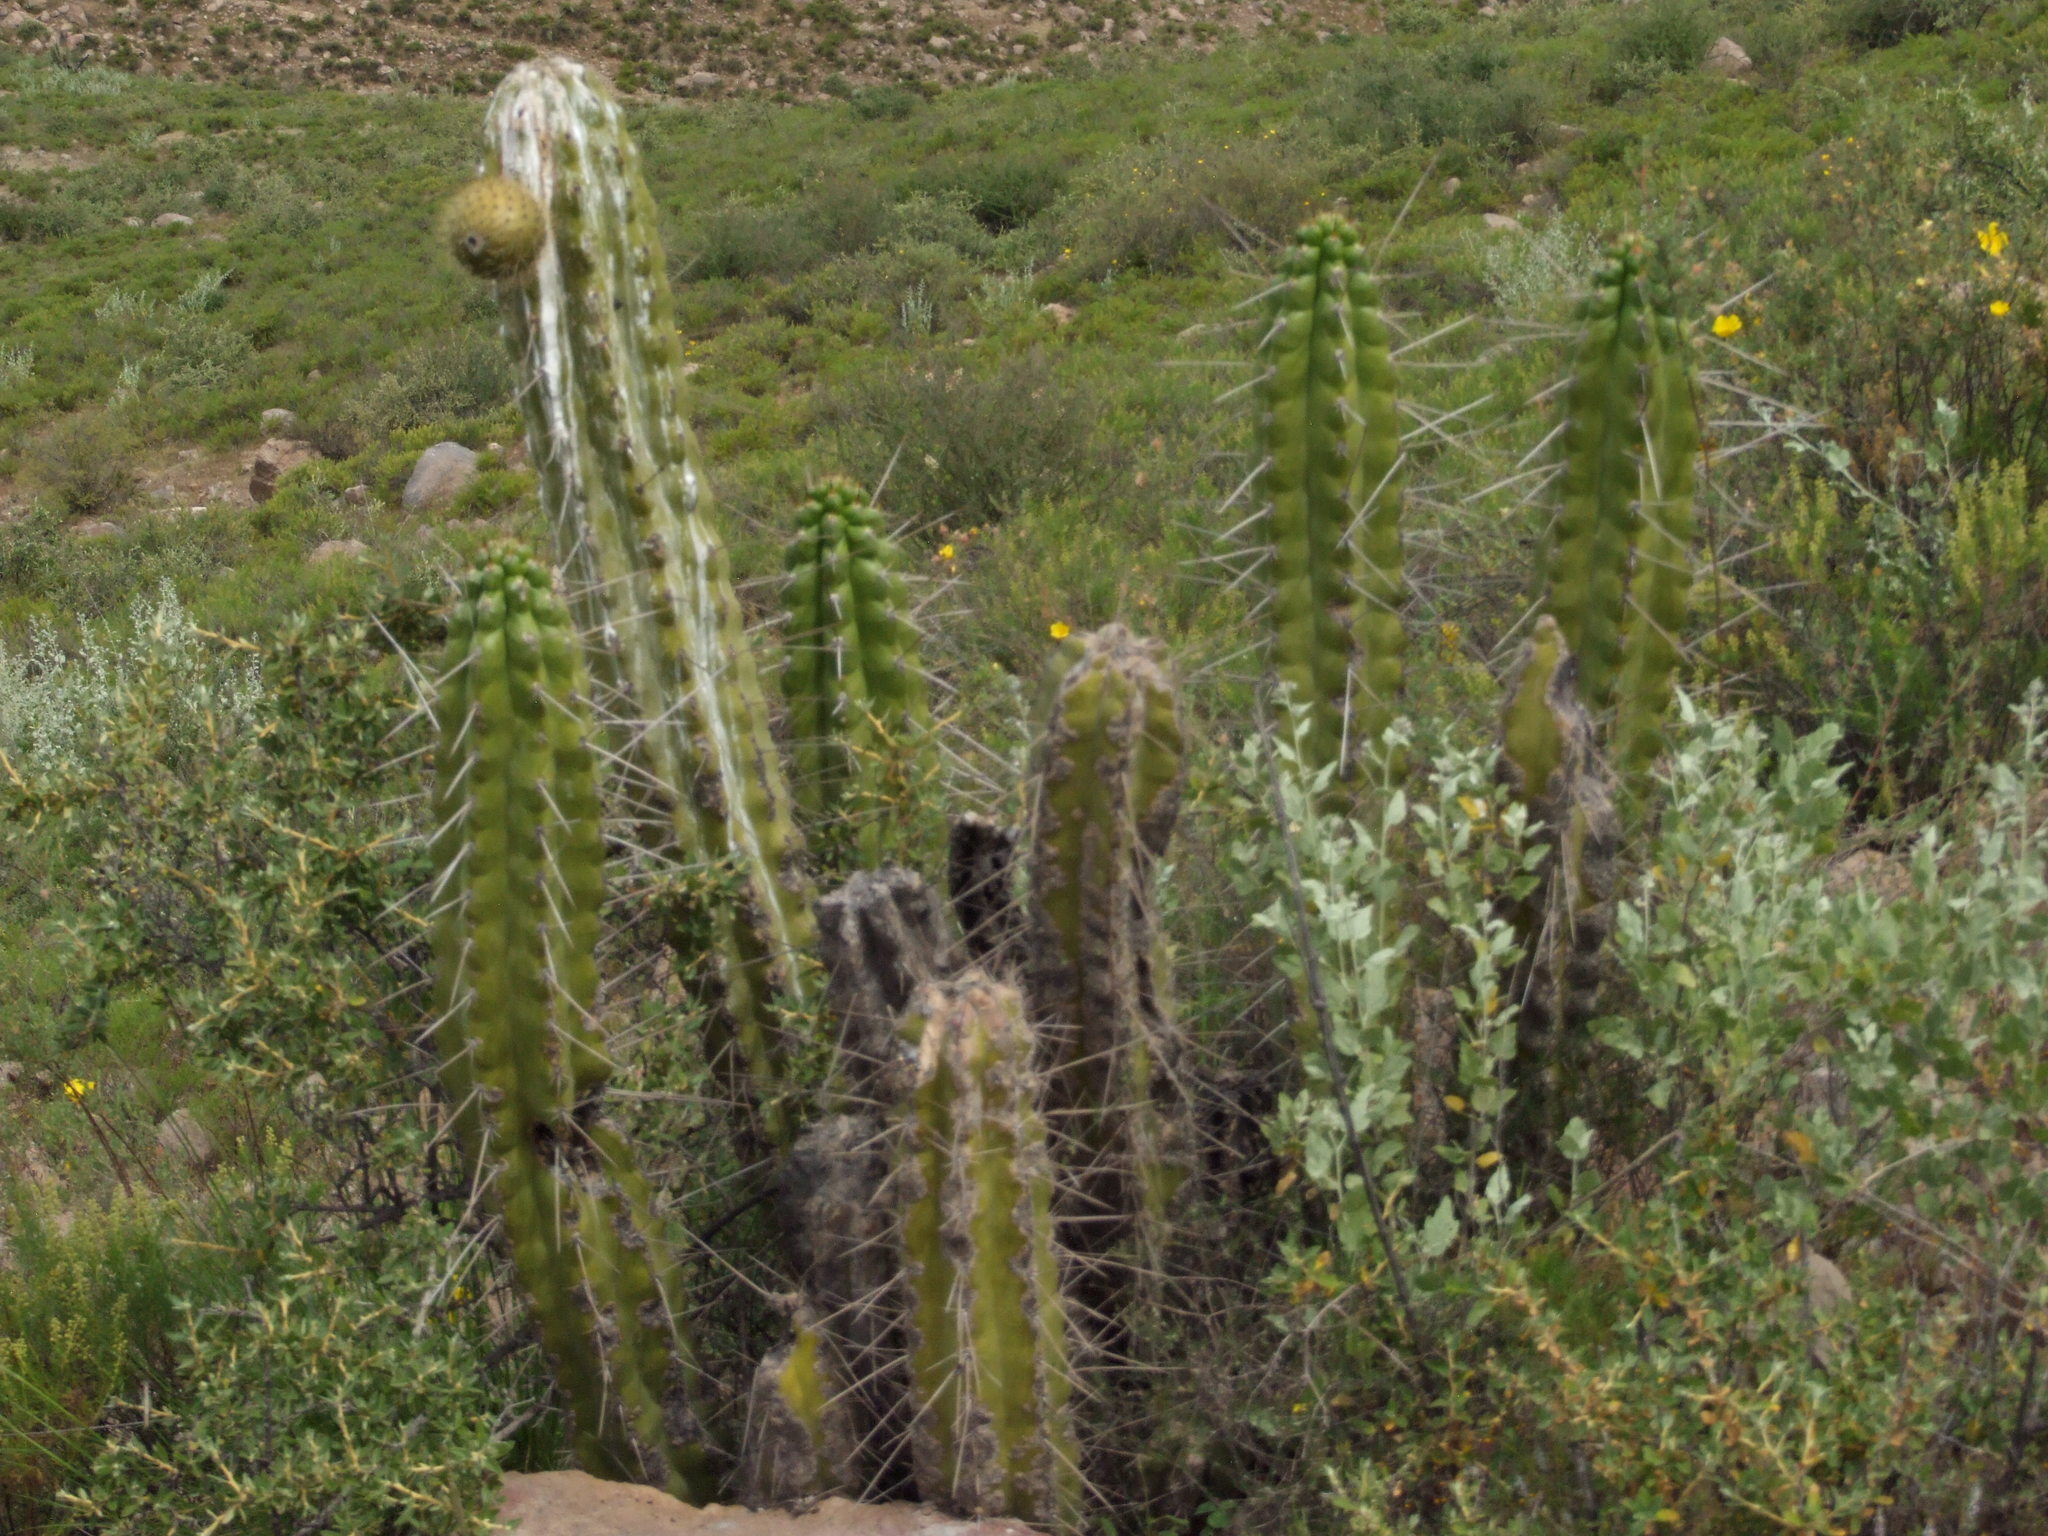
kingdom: Plantae
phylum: Tracheophyta
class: Magnoliopsida
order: Caryophyllales
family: Cactaceae
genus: Corryocactus
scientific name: Corryocactus brevistylus
